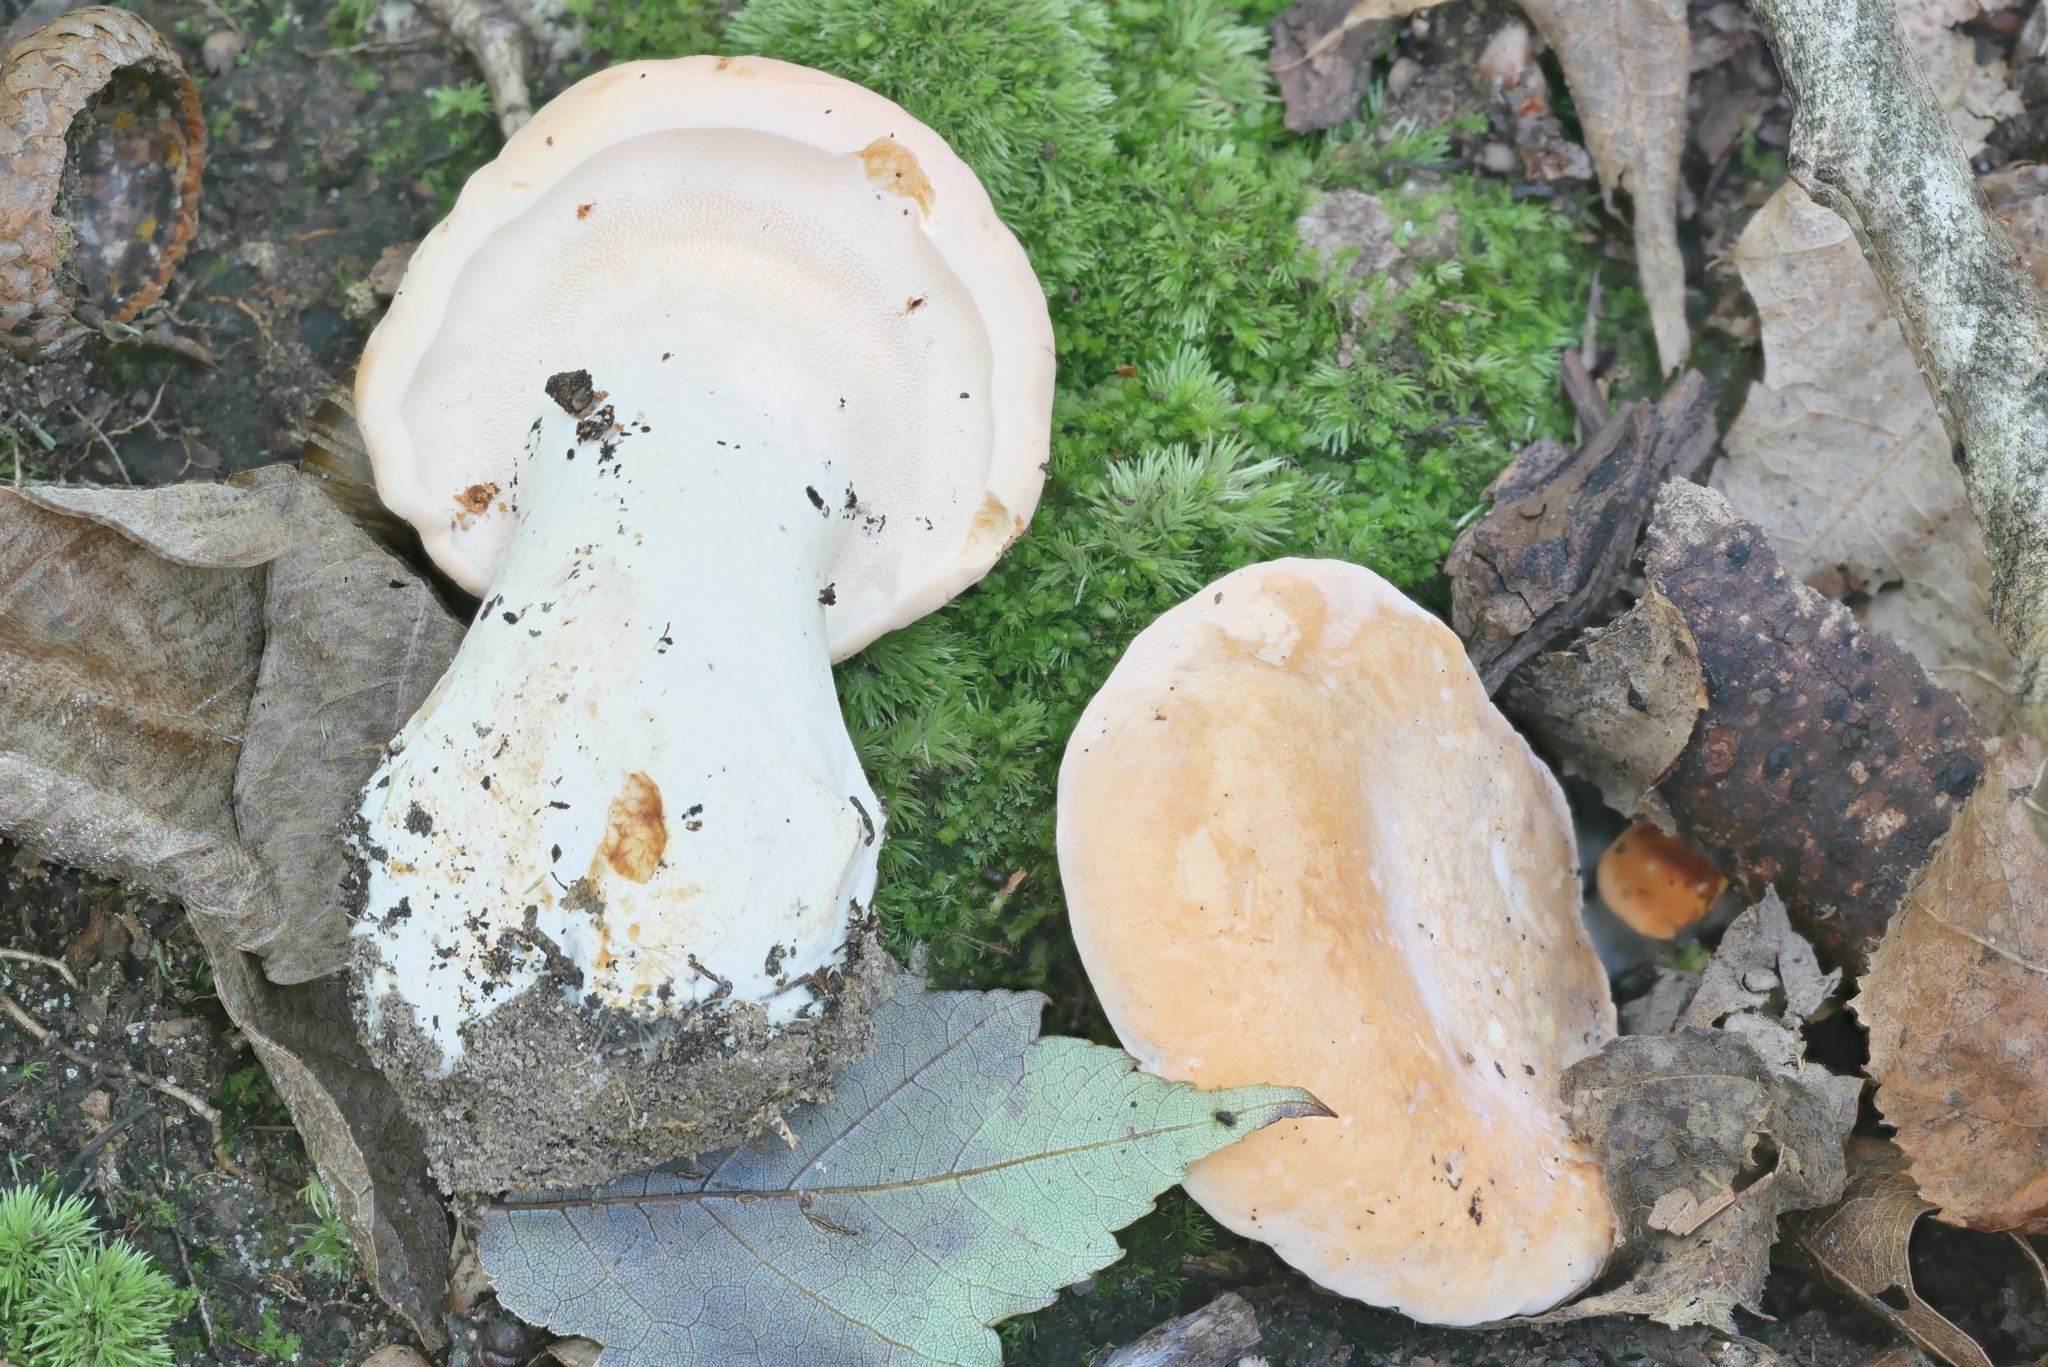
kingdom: Fungi
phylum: Basidiomycota
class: Agaricomycetes
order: Cantharellales
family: Hydnaceae
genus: Hydnum
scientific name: Hydnum subolympicum
